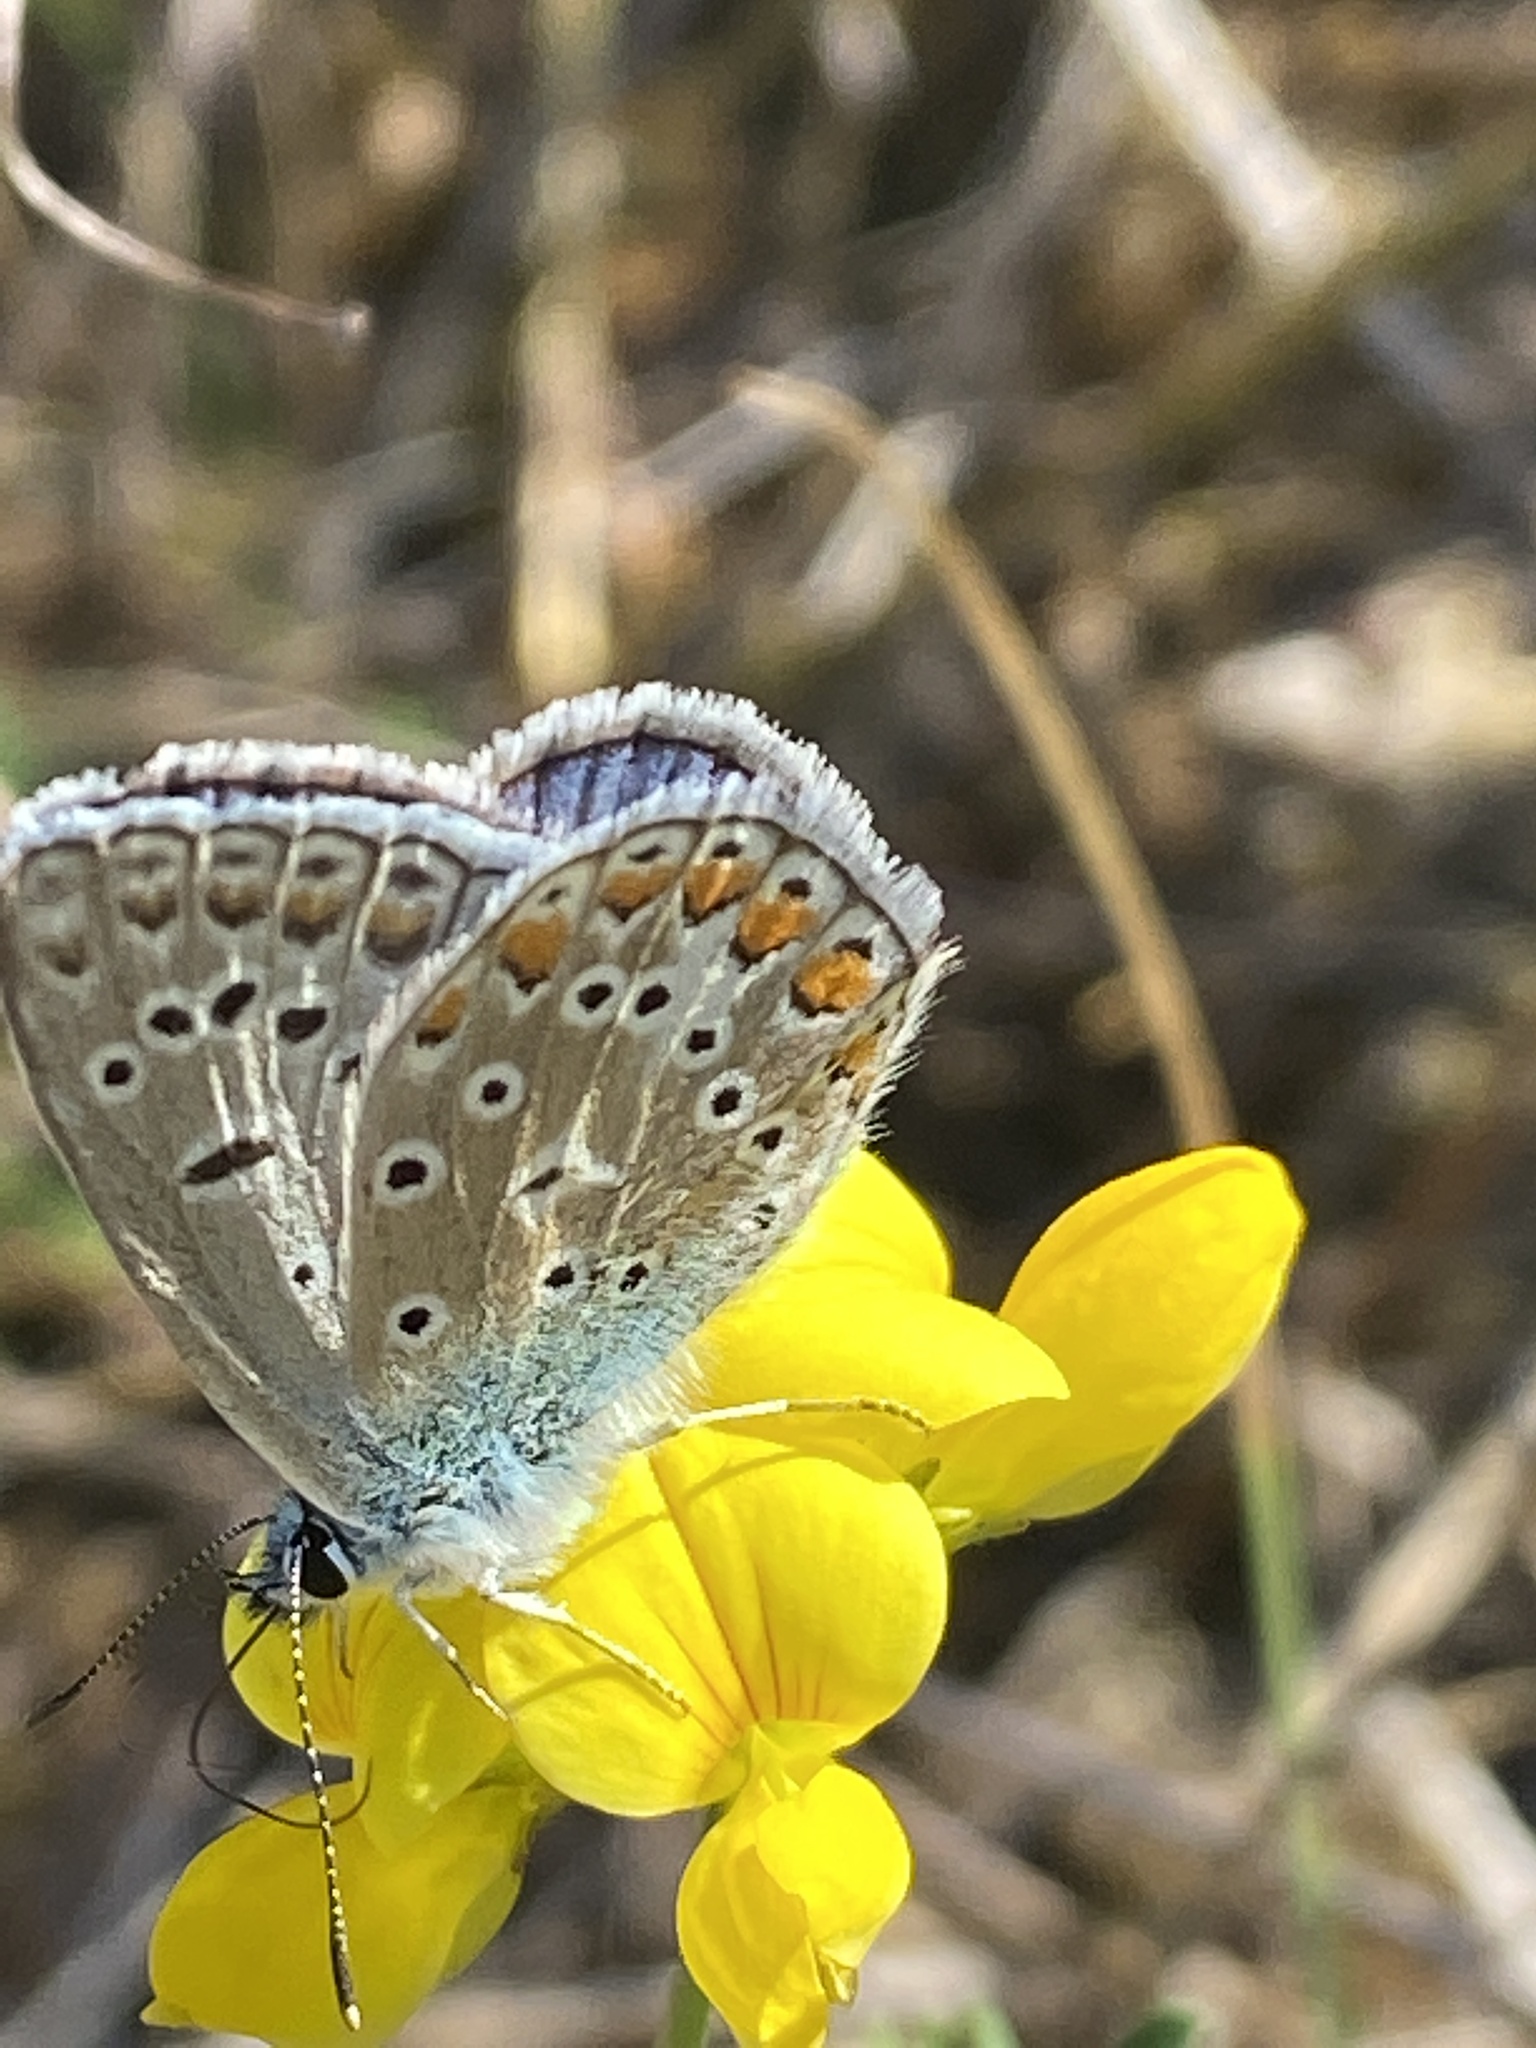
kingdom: Animalia
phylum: Arthropoda
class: Insecta
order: Lepidoptera
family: Lycaenidae
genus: Polyommatus
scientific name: Polyommatus icarus
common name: Common blue
